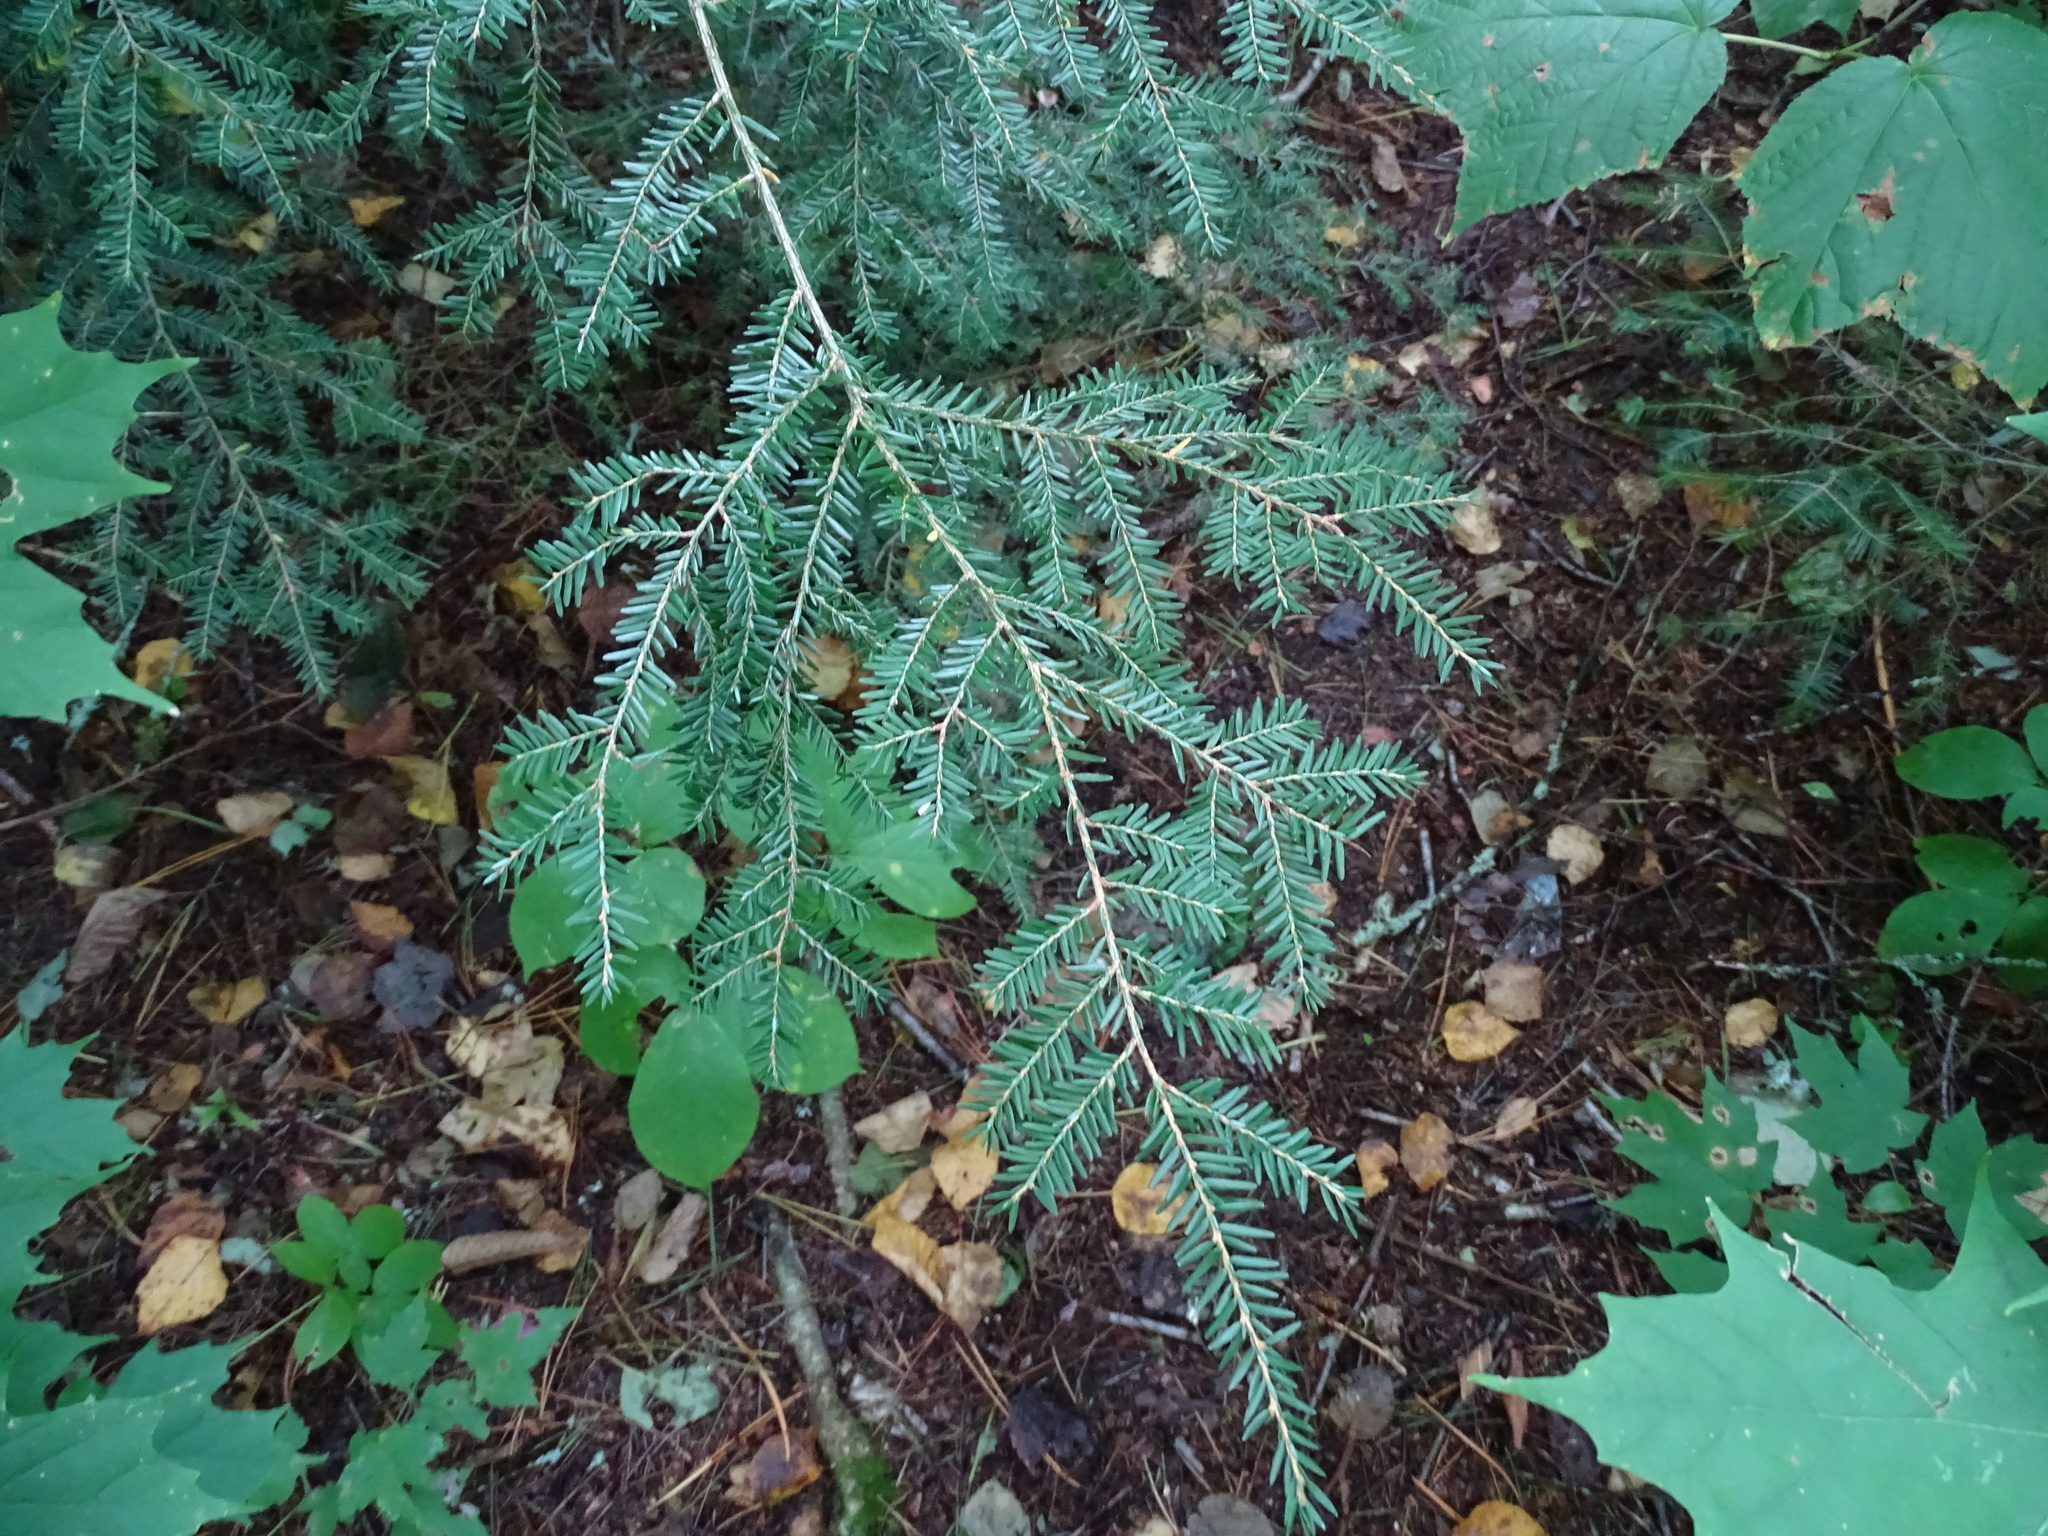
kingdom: Plantae
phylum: Tracheophyta
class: Pinopsida
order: Pinales
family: Pinaceae
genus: Tsuga
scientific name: Tsuga canadensis
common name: Eastern hemlock
